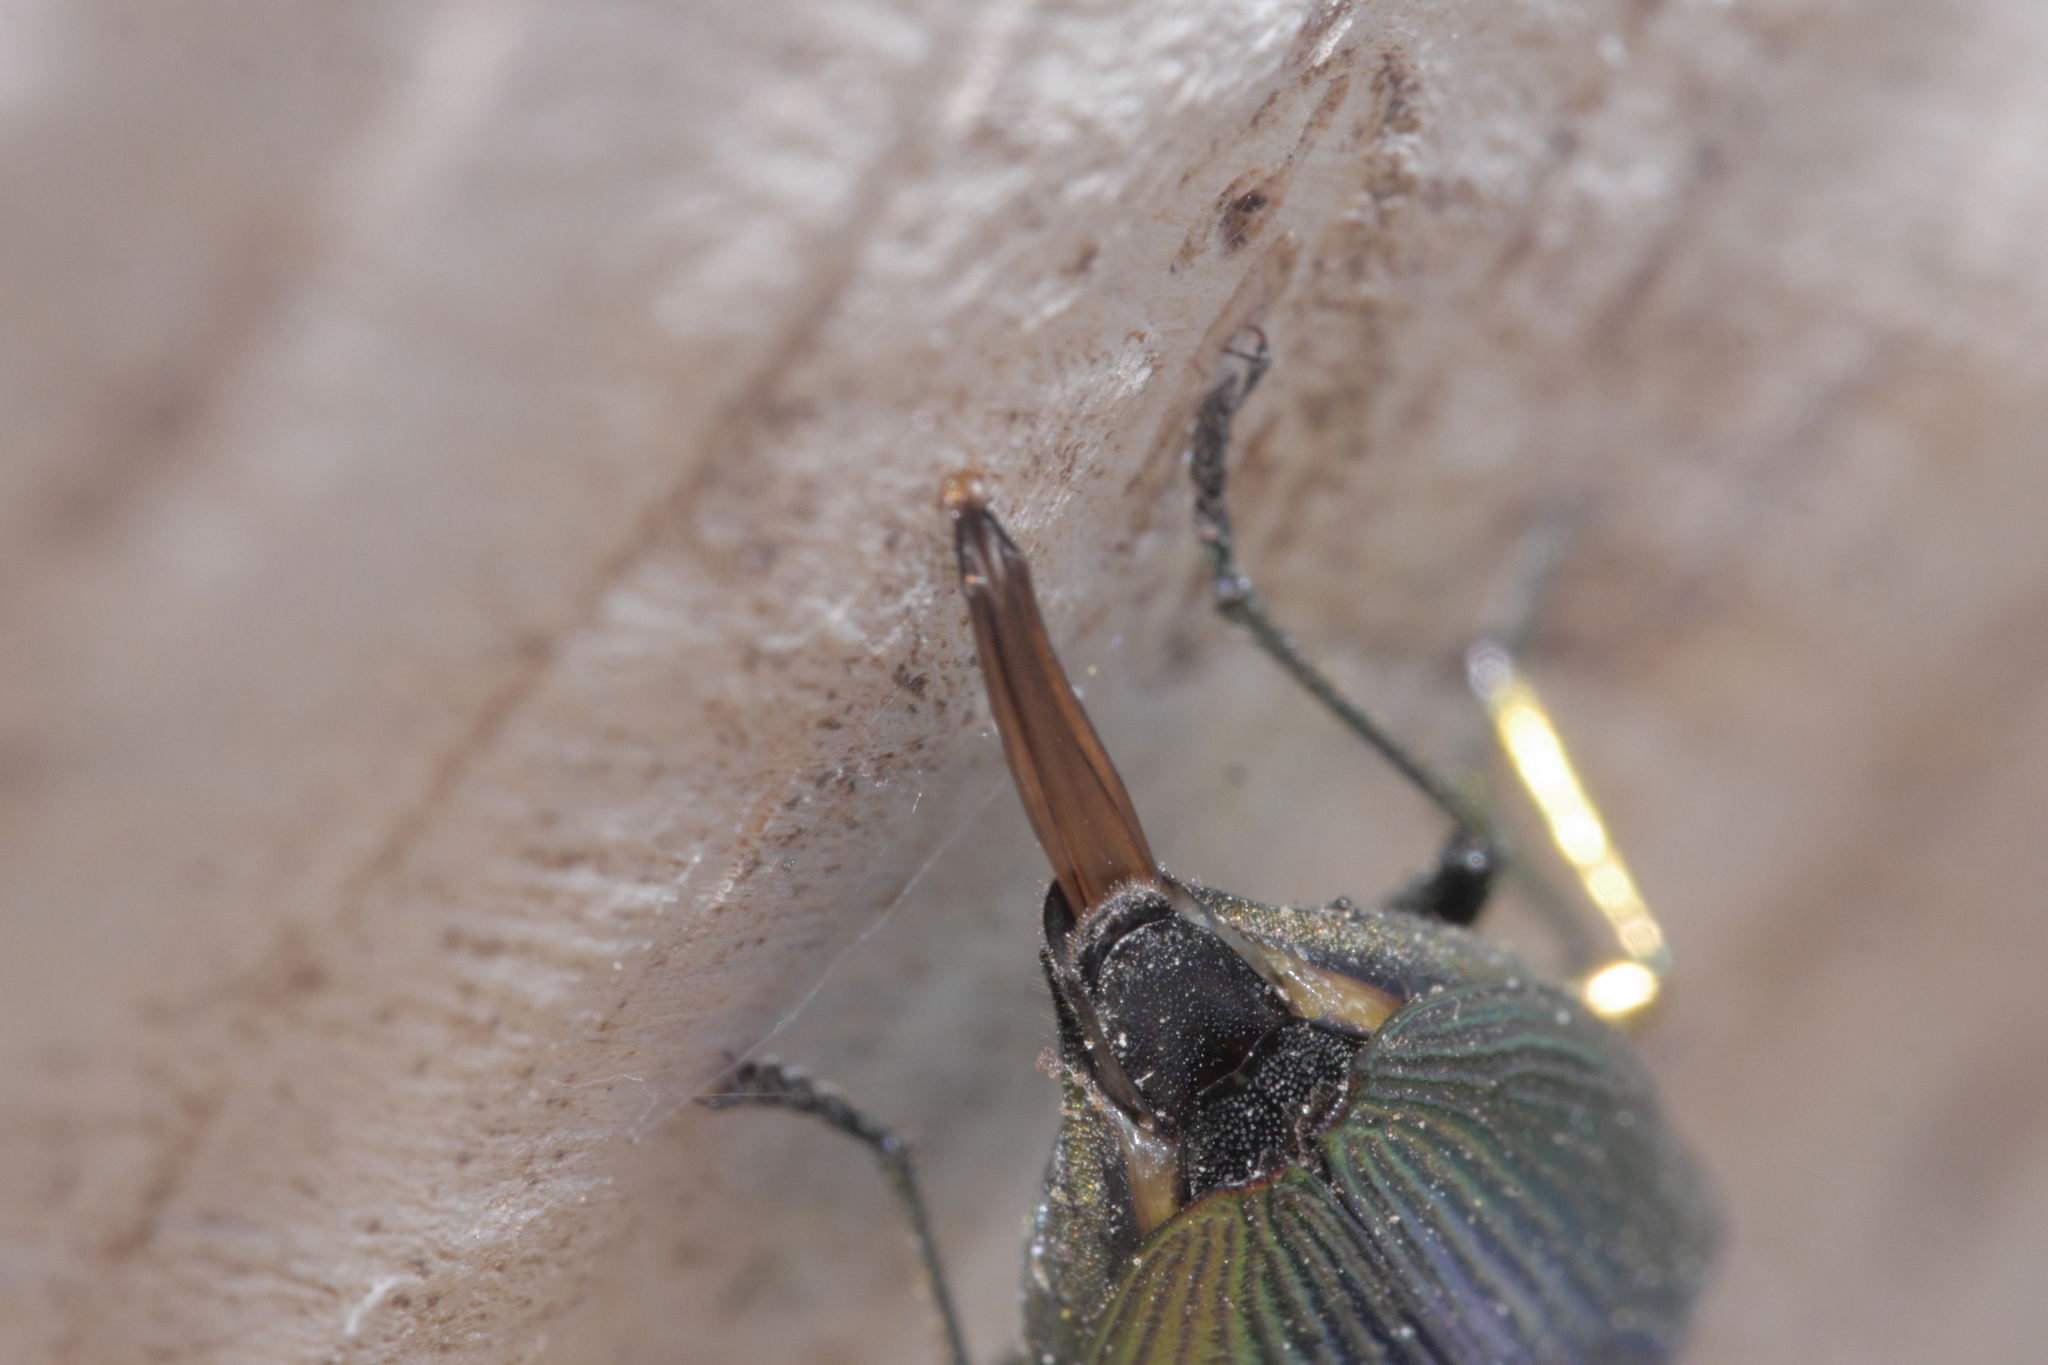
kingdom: Animalia
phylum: Arthropoda
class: Insecta
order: Coleoptera
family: Buprestidae
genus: Eurythyrea
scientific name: Eurythyrea micans
